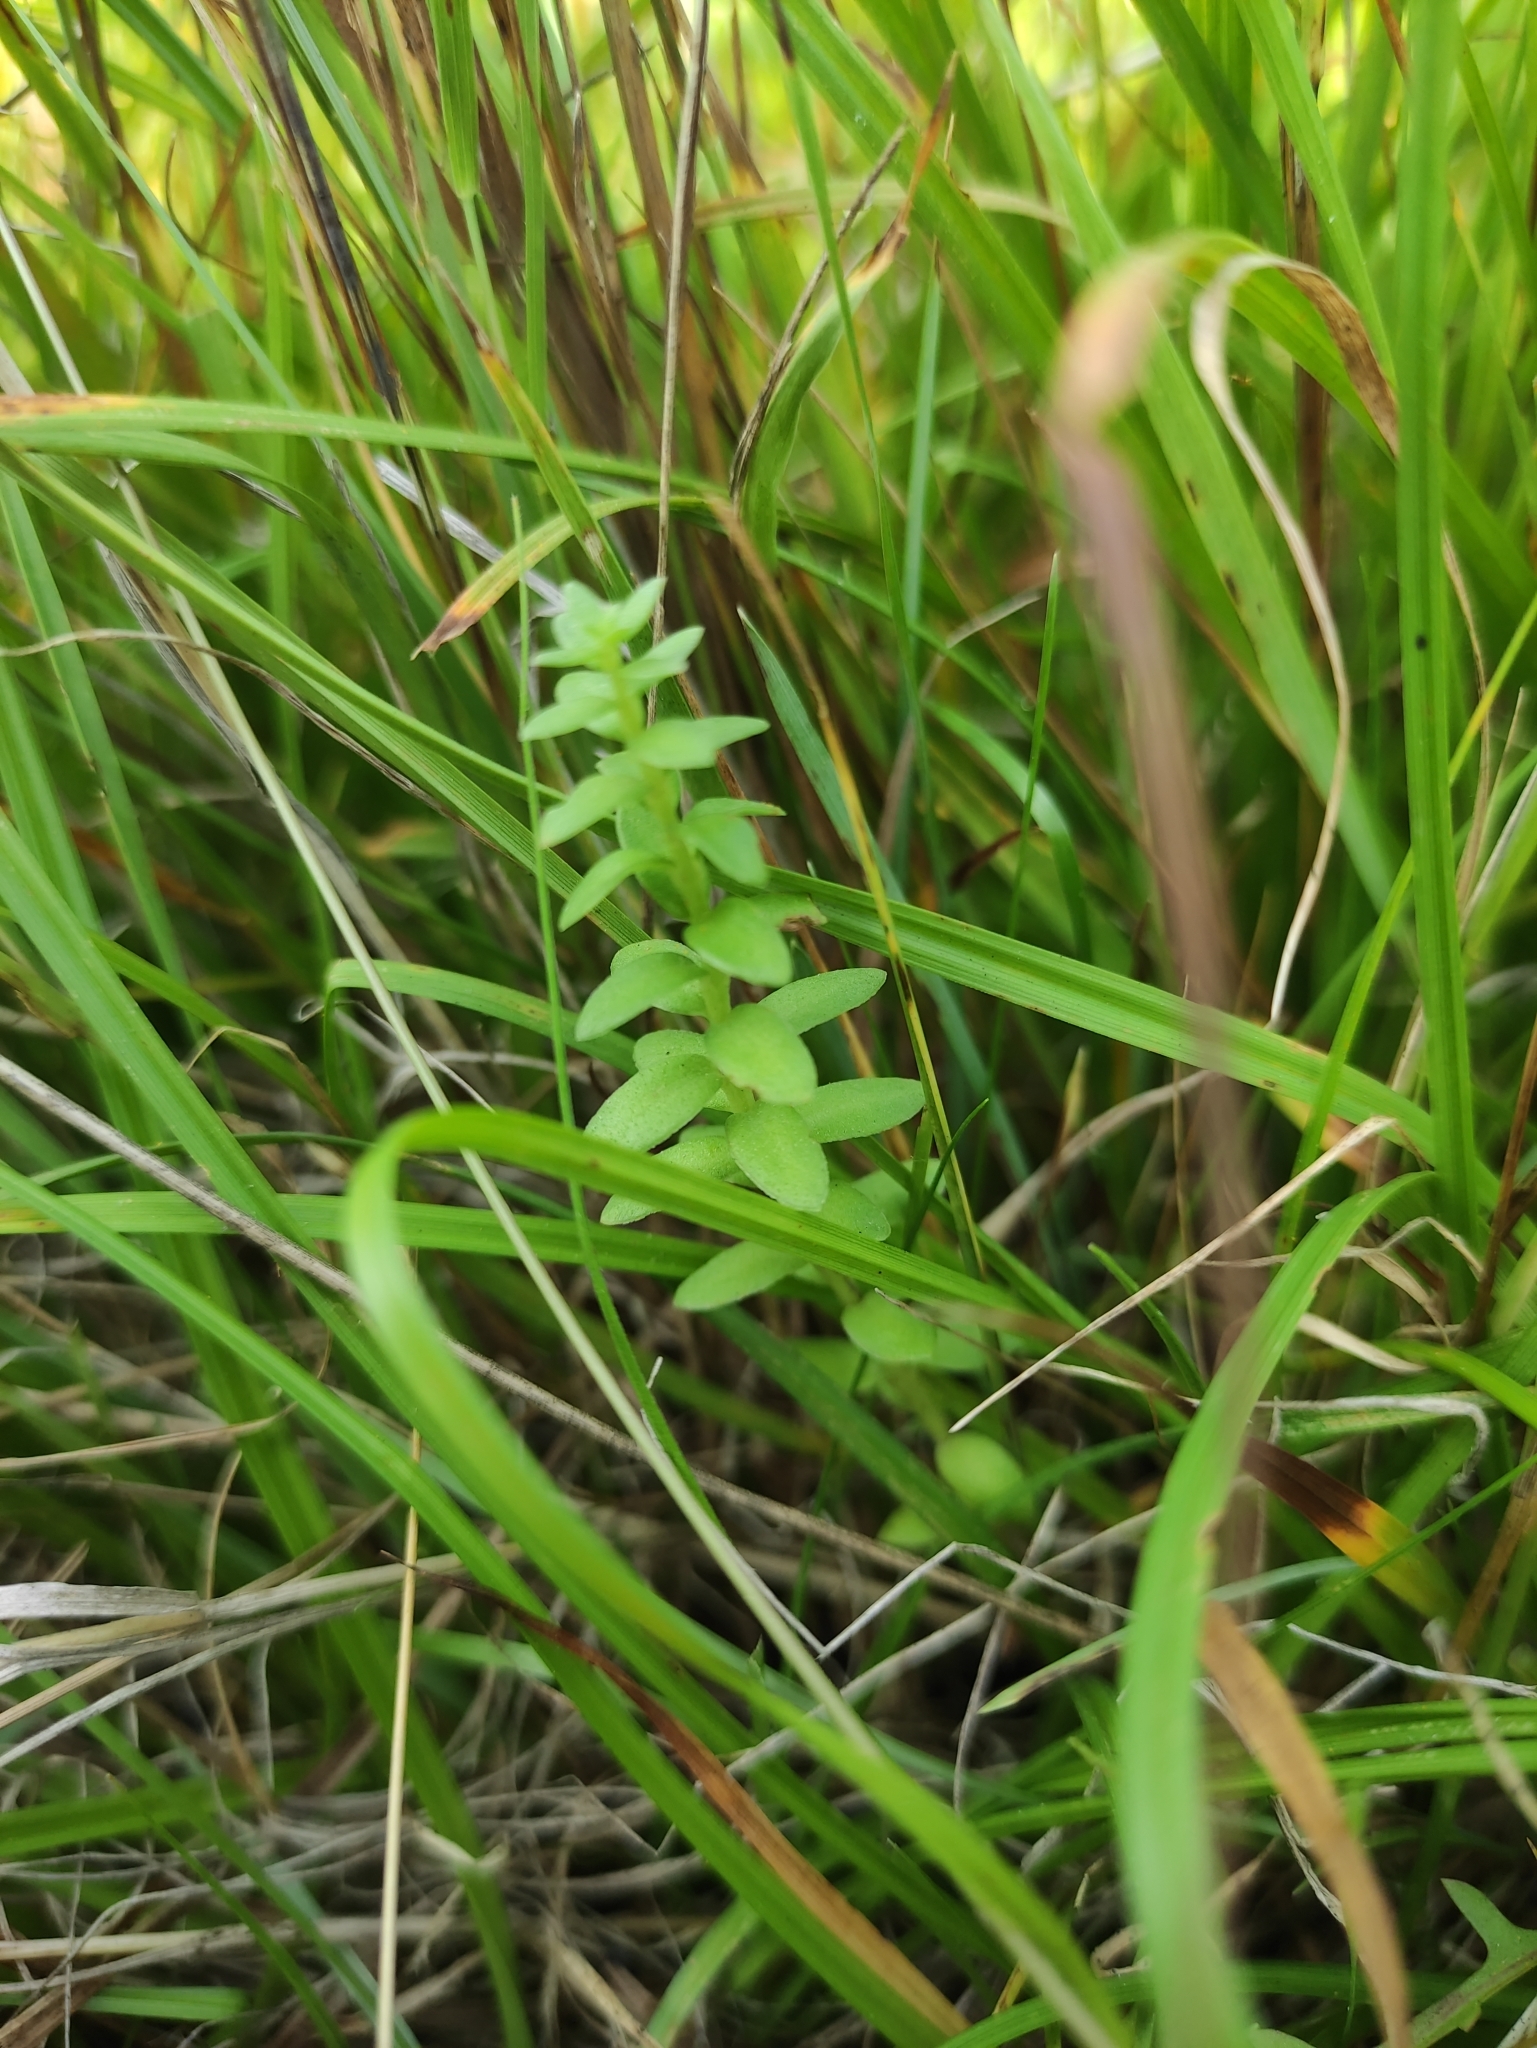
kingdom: Plantae
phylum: Tracheophyta
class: Magnoliopsida
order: Ericales
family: Primulaceae
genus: Lysimachia
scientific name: Lysimachia maritima
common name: Sea milkwort
